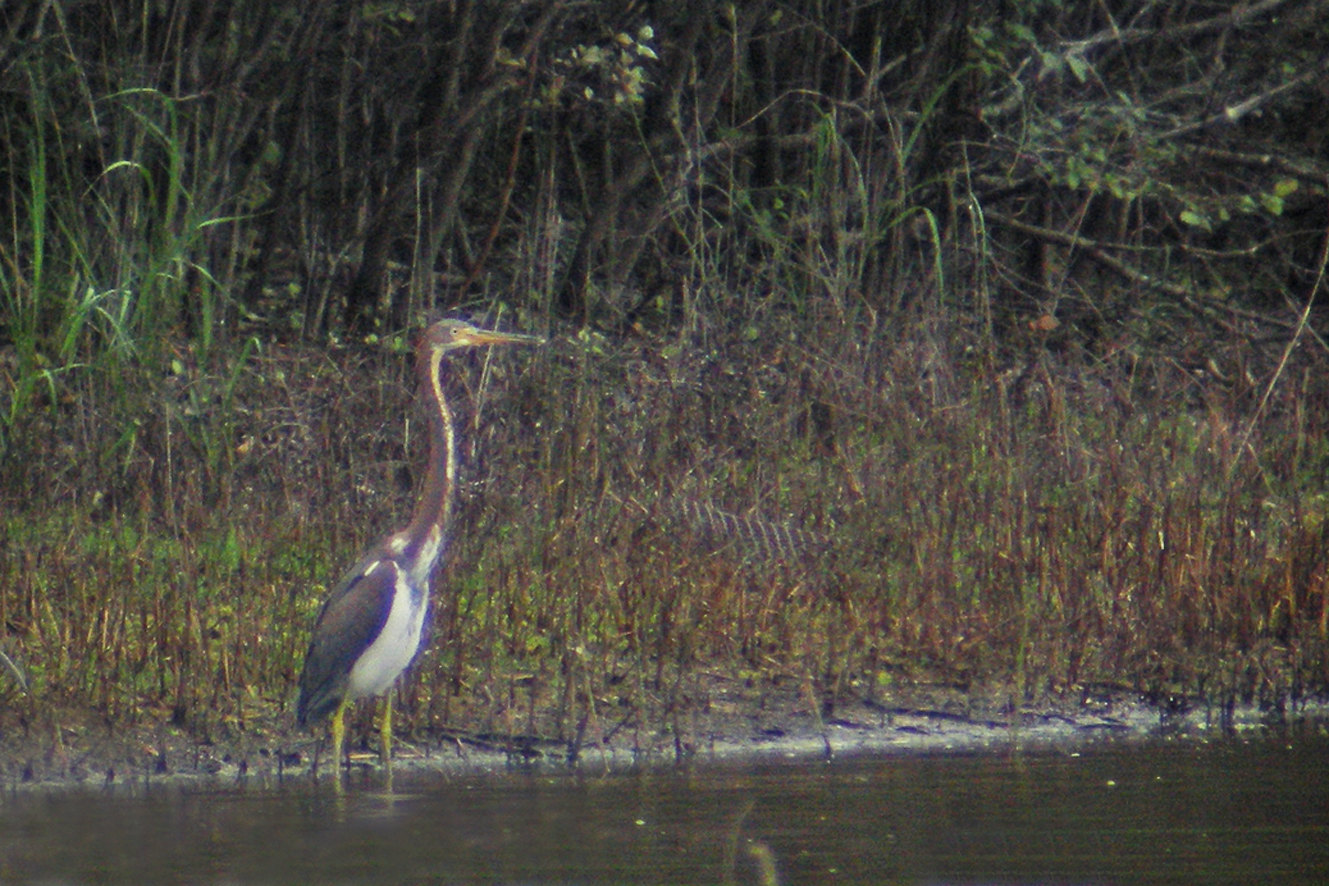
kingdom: Animalia
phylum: Chordata
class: Aves
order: Pelecaniformes
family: Ardeidae
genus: Egretta
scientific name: Egretta tricolor
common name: Tricolored heron
